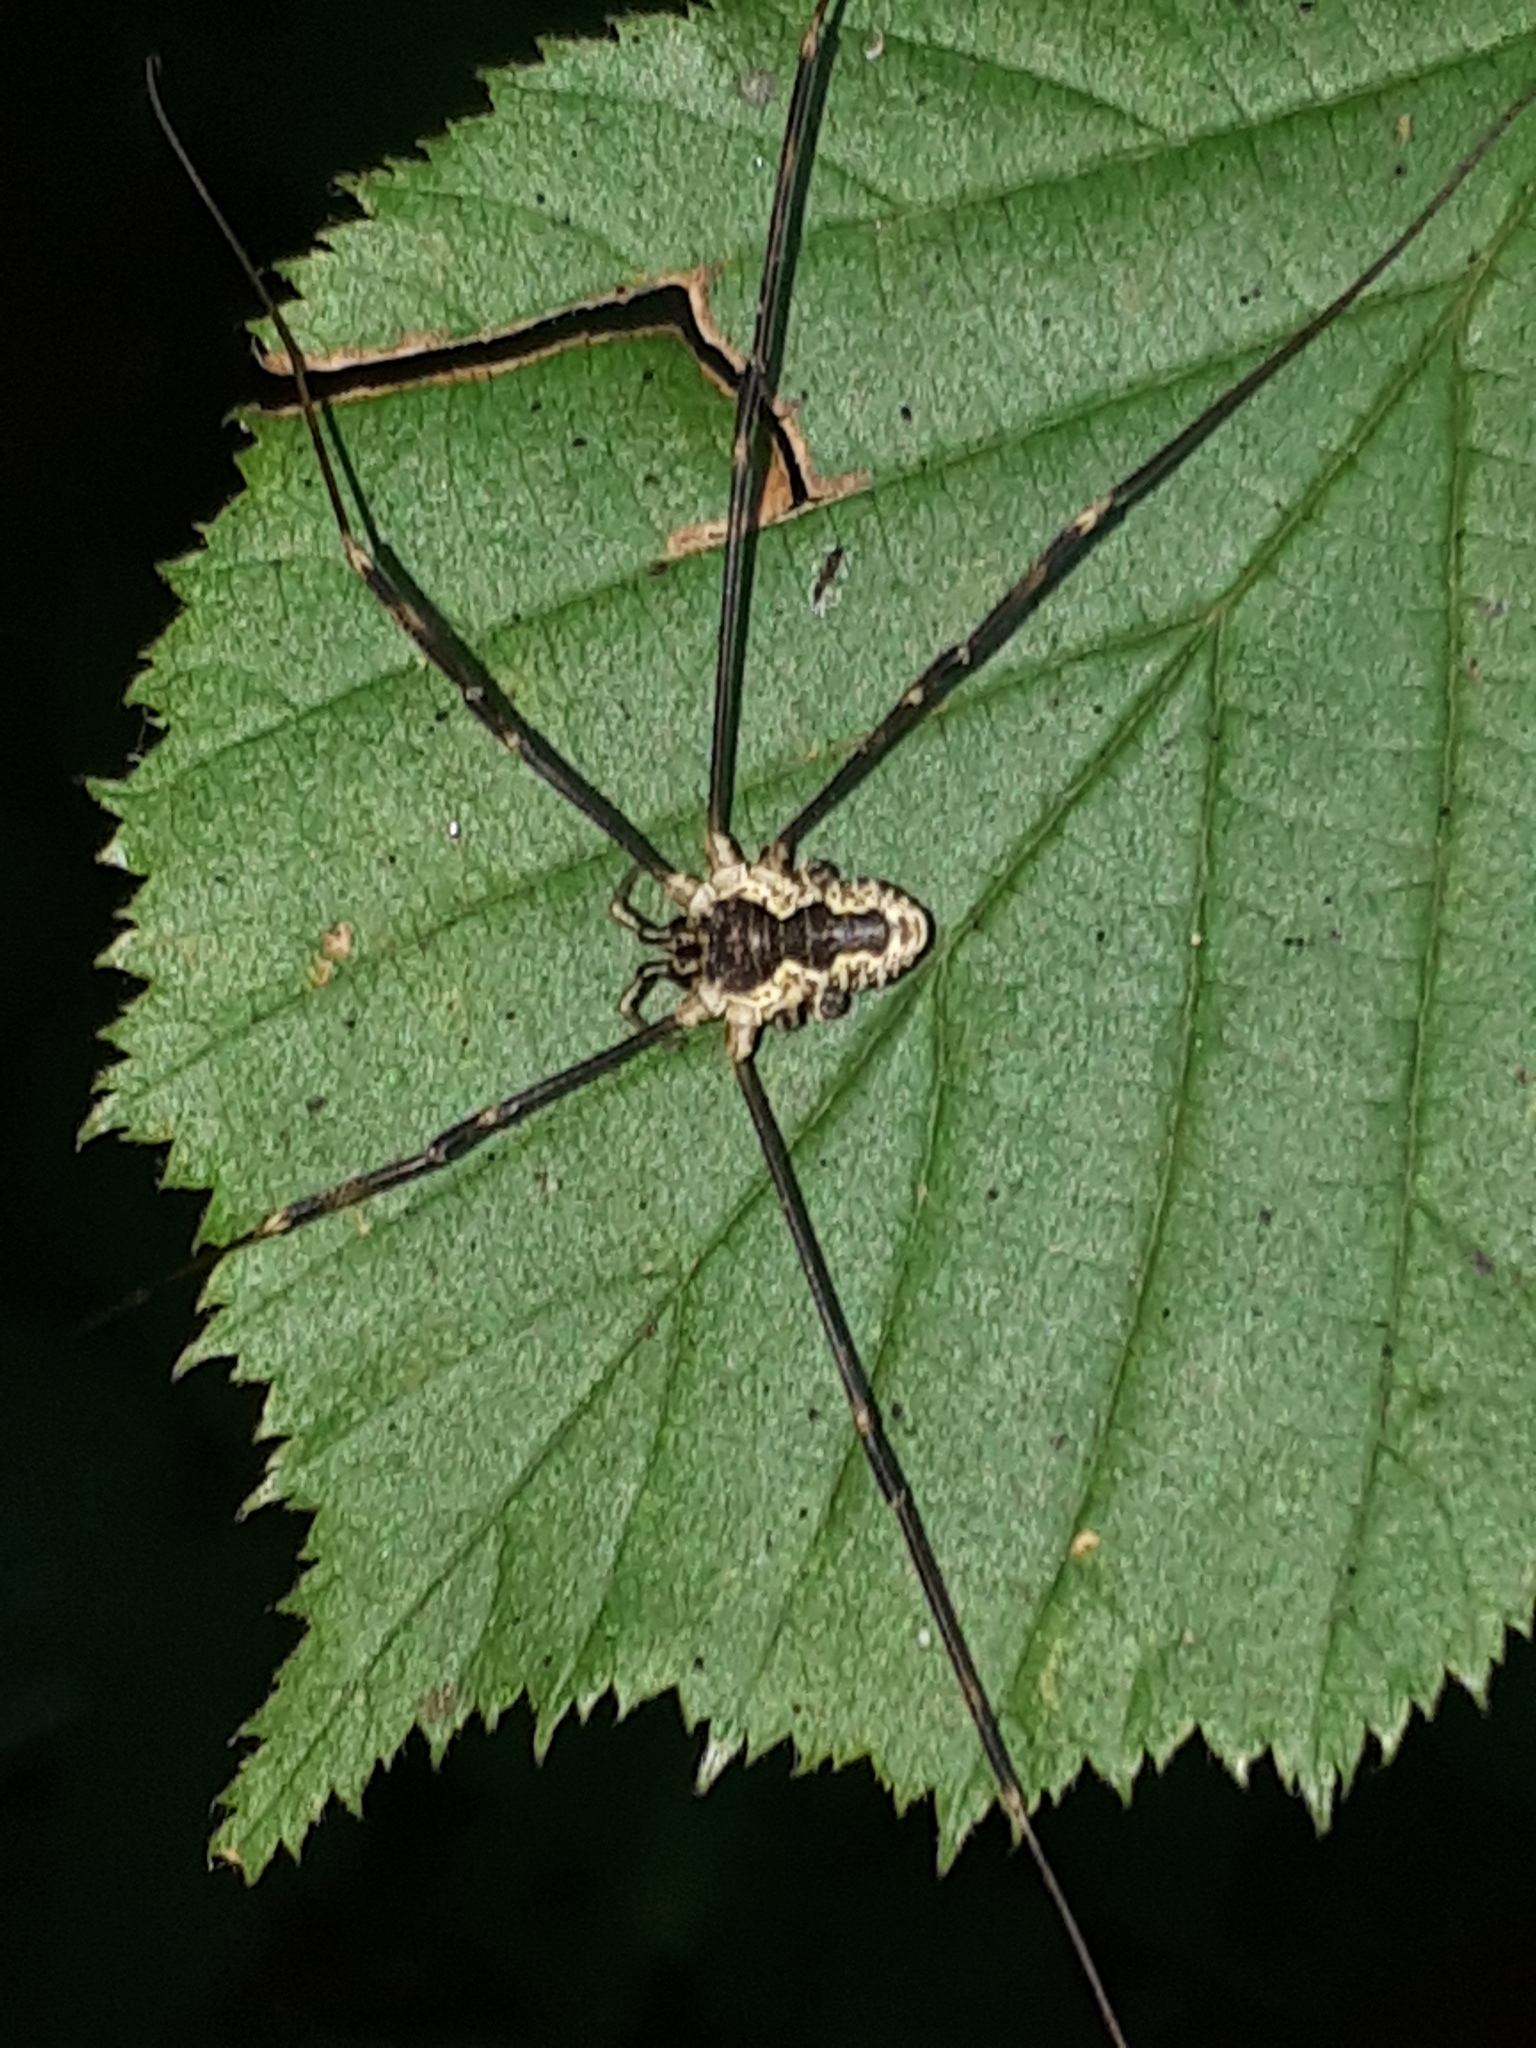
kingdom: Animalia
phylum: Arthropoda
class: Arachnida
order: Opiliones
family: Phalangiidae
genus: Mitopus
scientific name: Mitopus morio
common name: Saddleback harvestman
